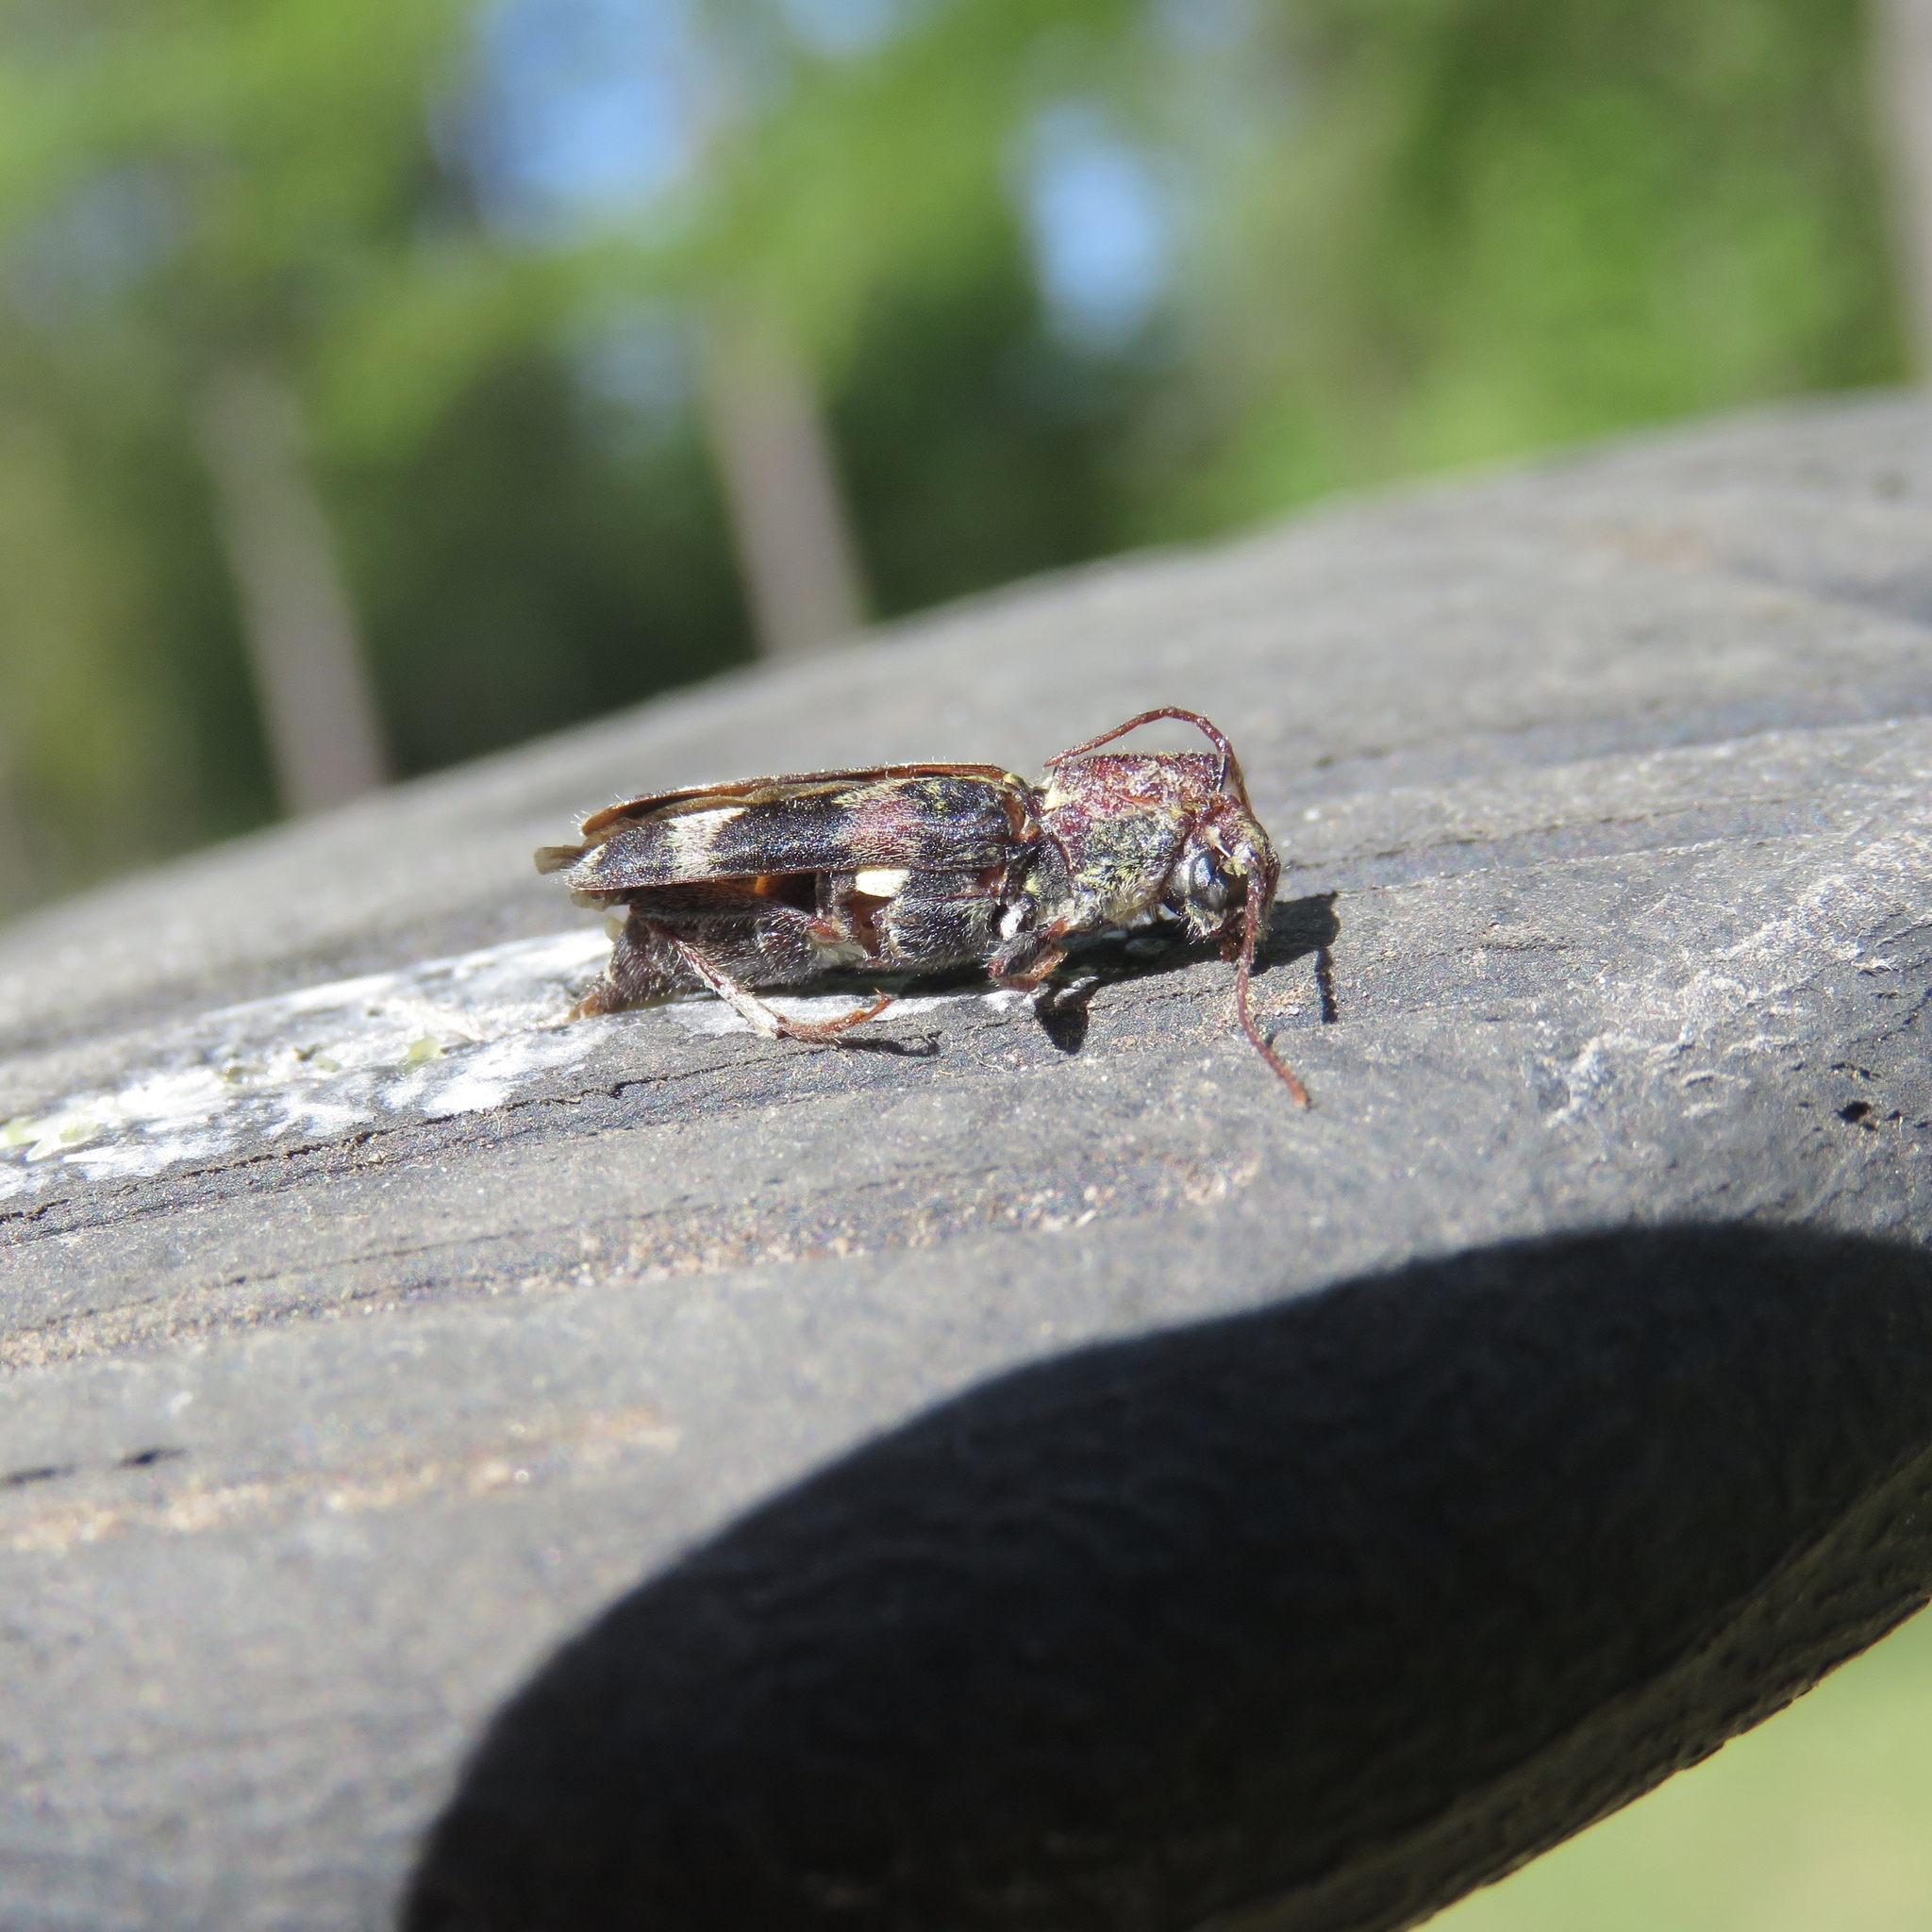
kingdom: Animalia
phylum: Arthropoda
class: Insecta
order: Coleoptera
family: Cerambycidae
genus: Xylotrechus
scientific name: Xylotrechus colonus
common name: Long-horned beetle
